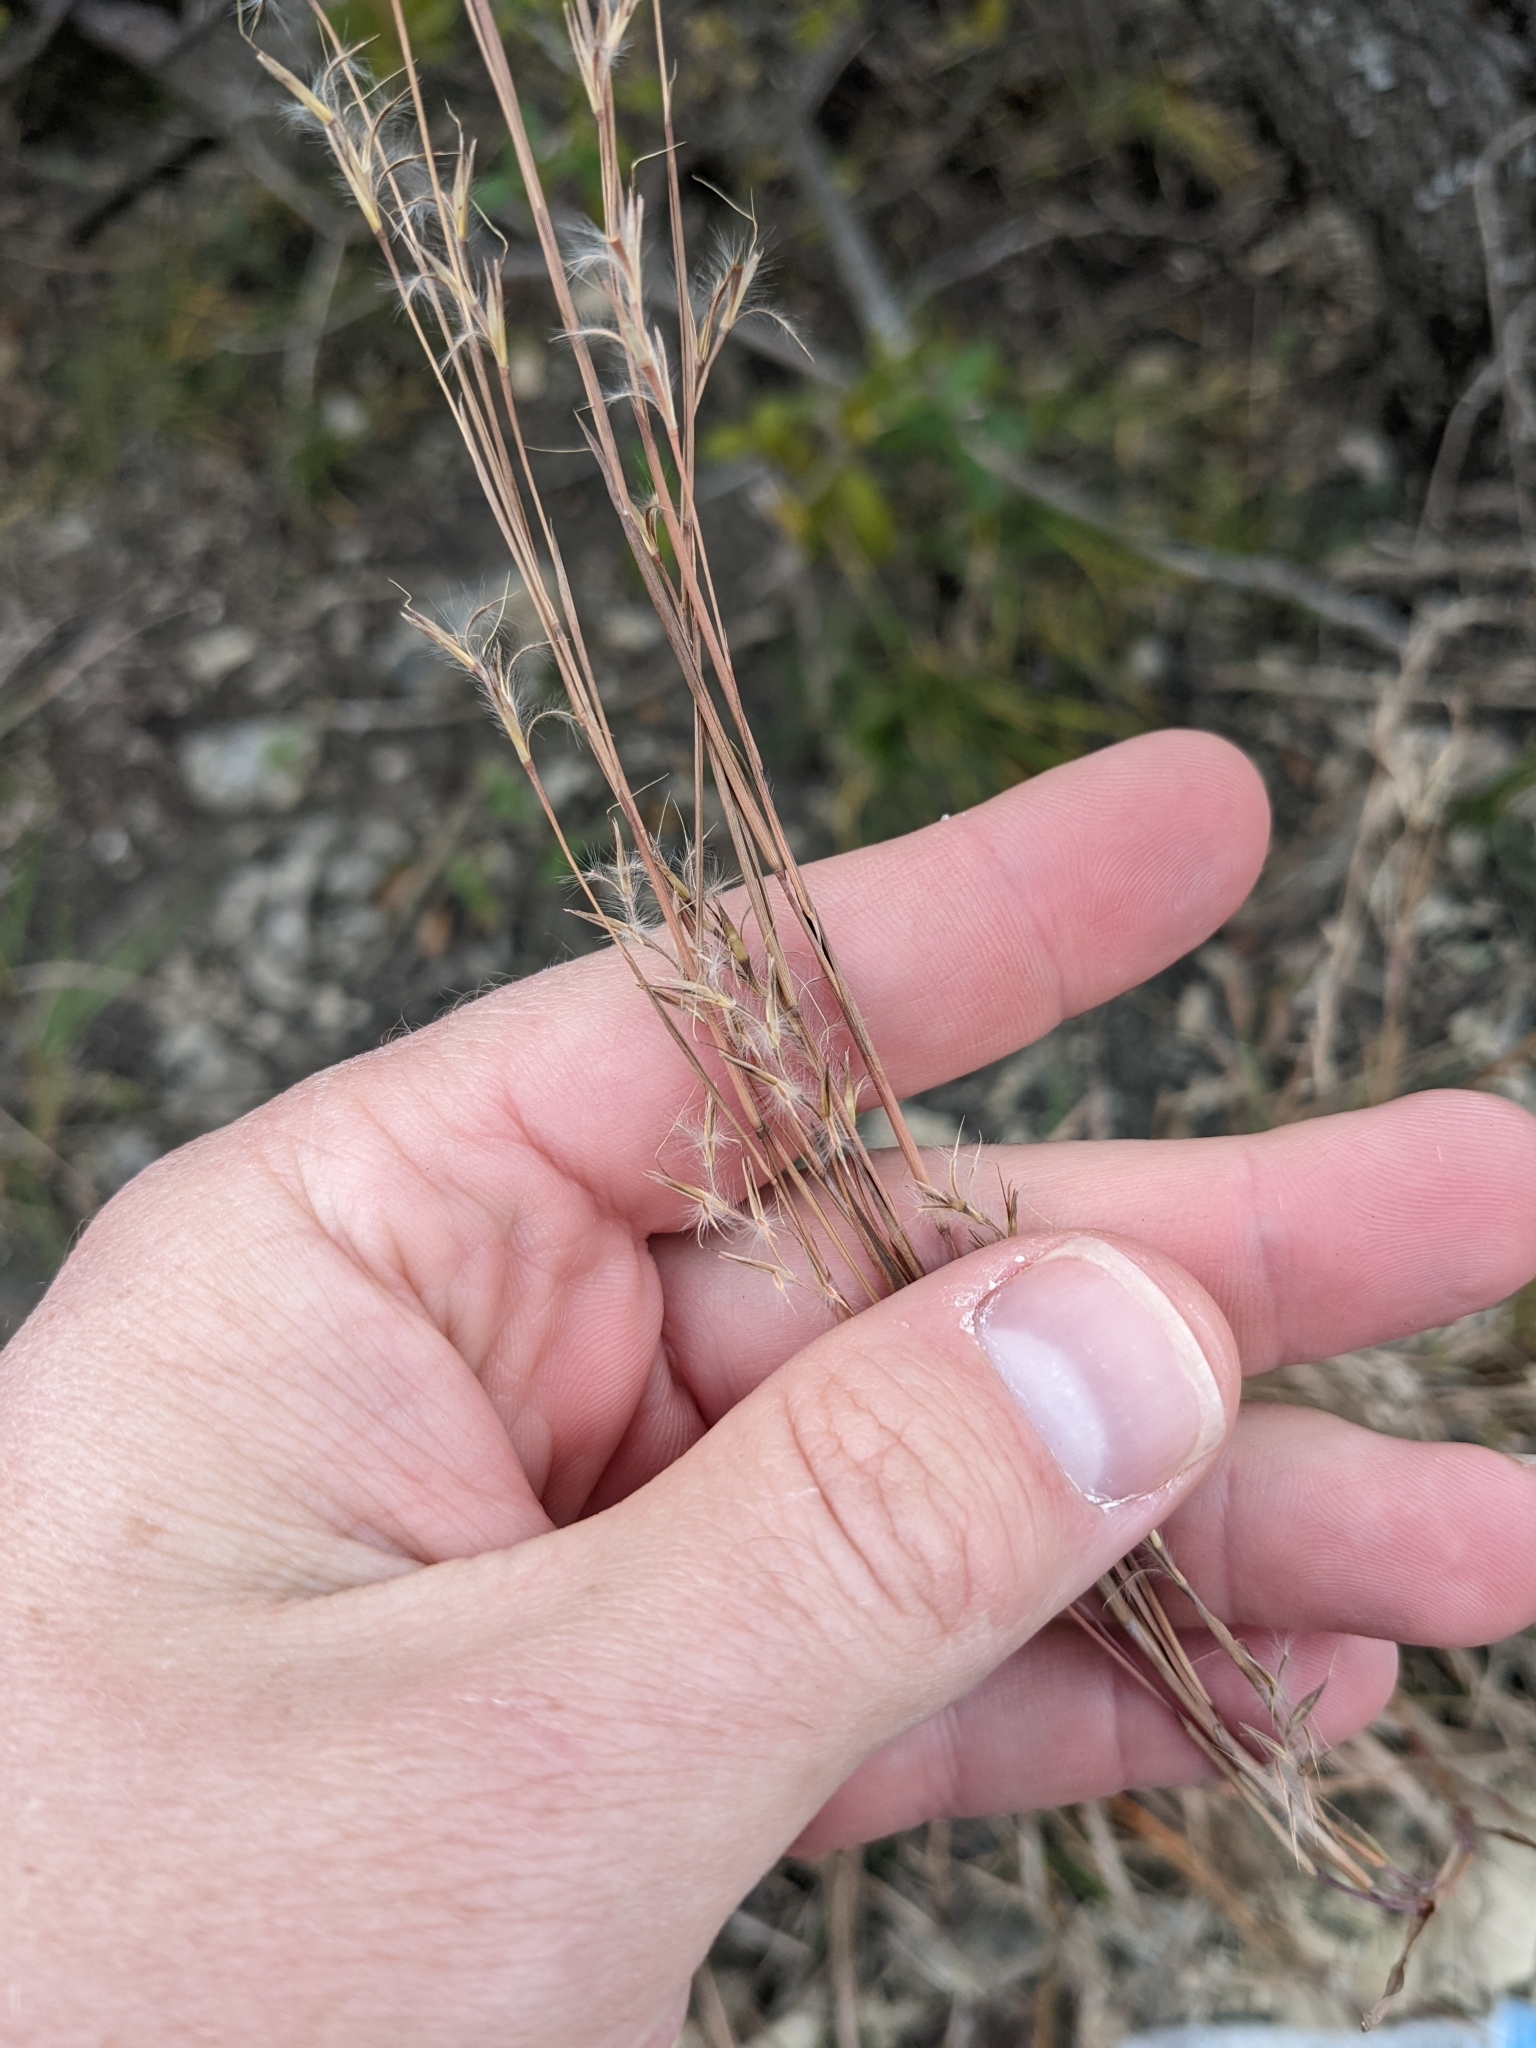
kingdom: Plantae
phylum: Tracheophyta
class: Liliopsida
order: Poales
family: Poaceae
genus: Schizachyrium
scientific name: Schizachyrium scoparium
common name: Little bluestem
